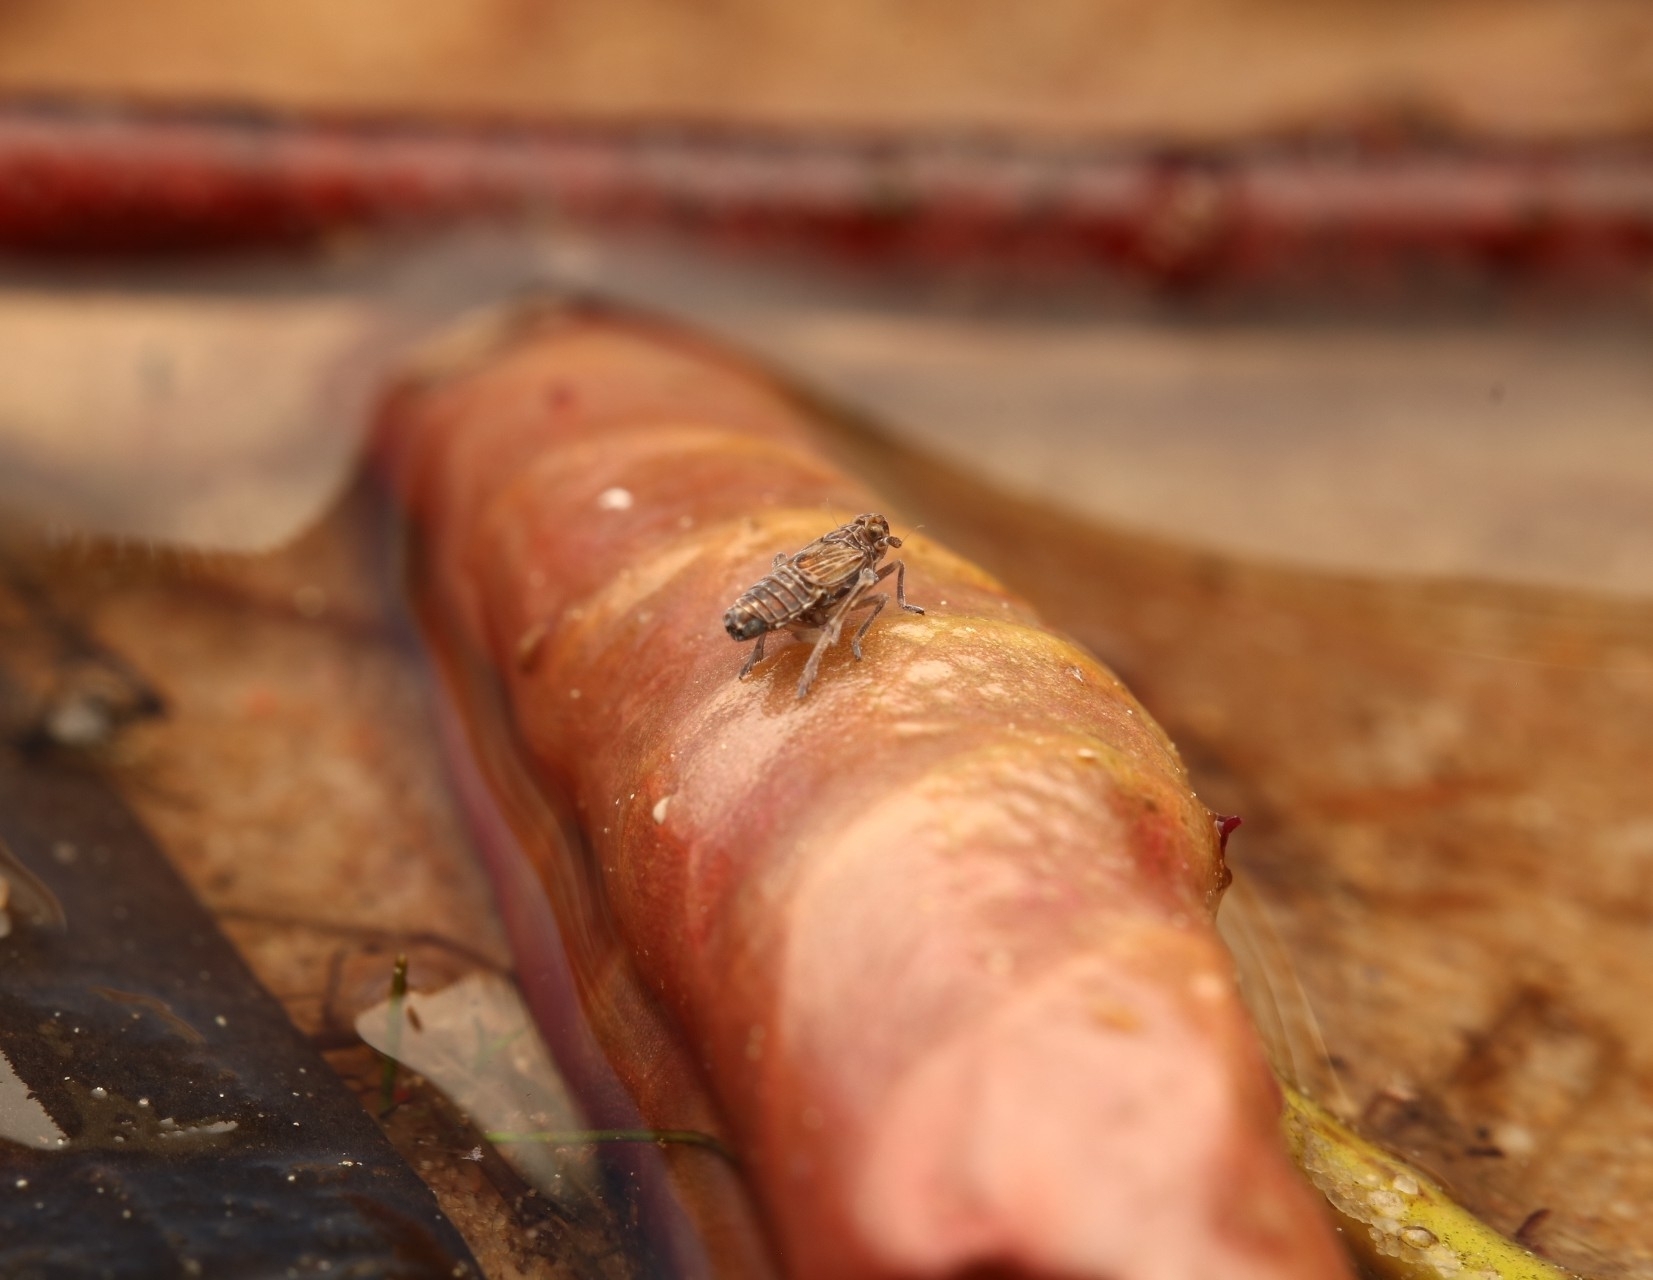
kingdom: Animalia
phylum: Arthropoda
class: Insecta
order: Hemiptera
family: Delphacidae
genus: Megamelus
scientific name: Megamelus davisi
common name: Planthopper
